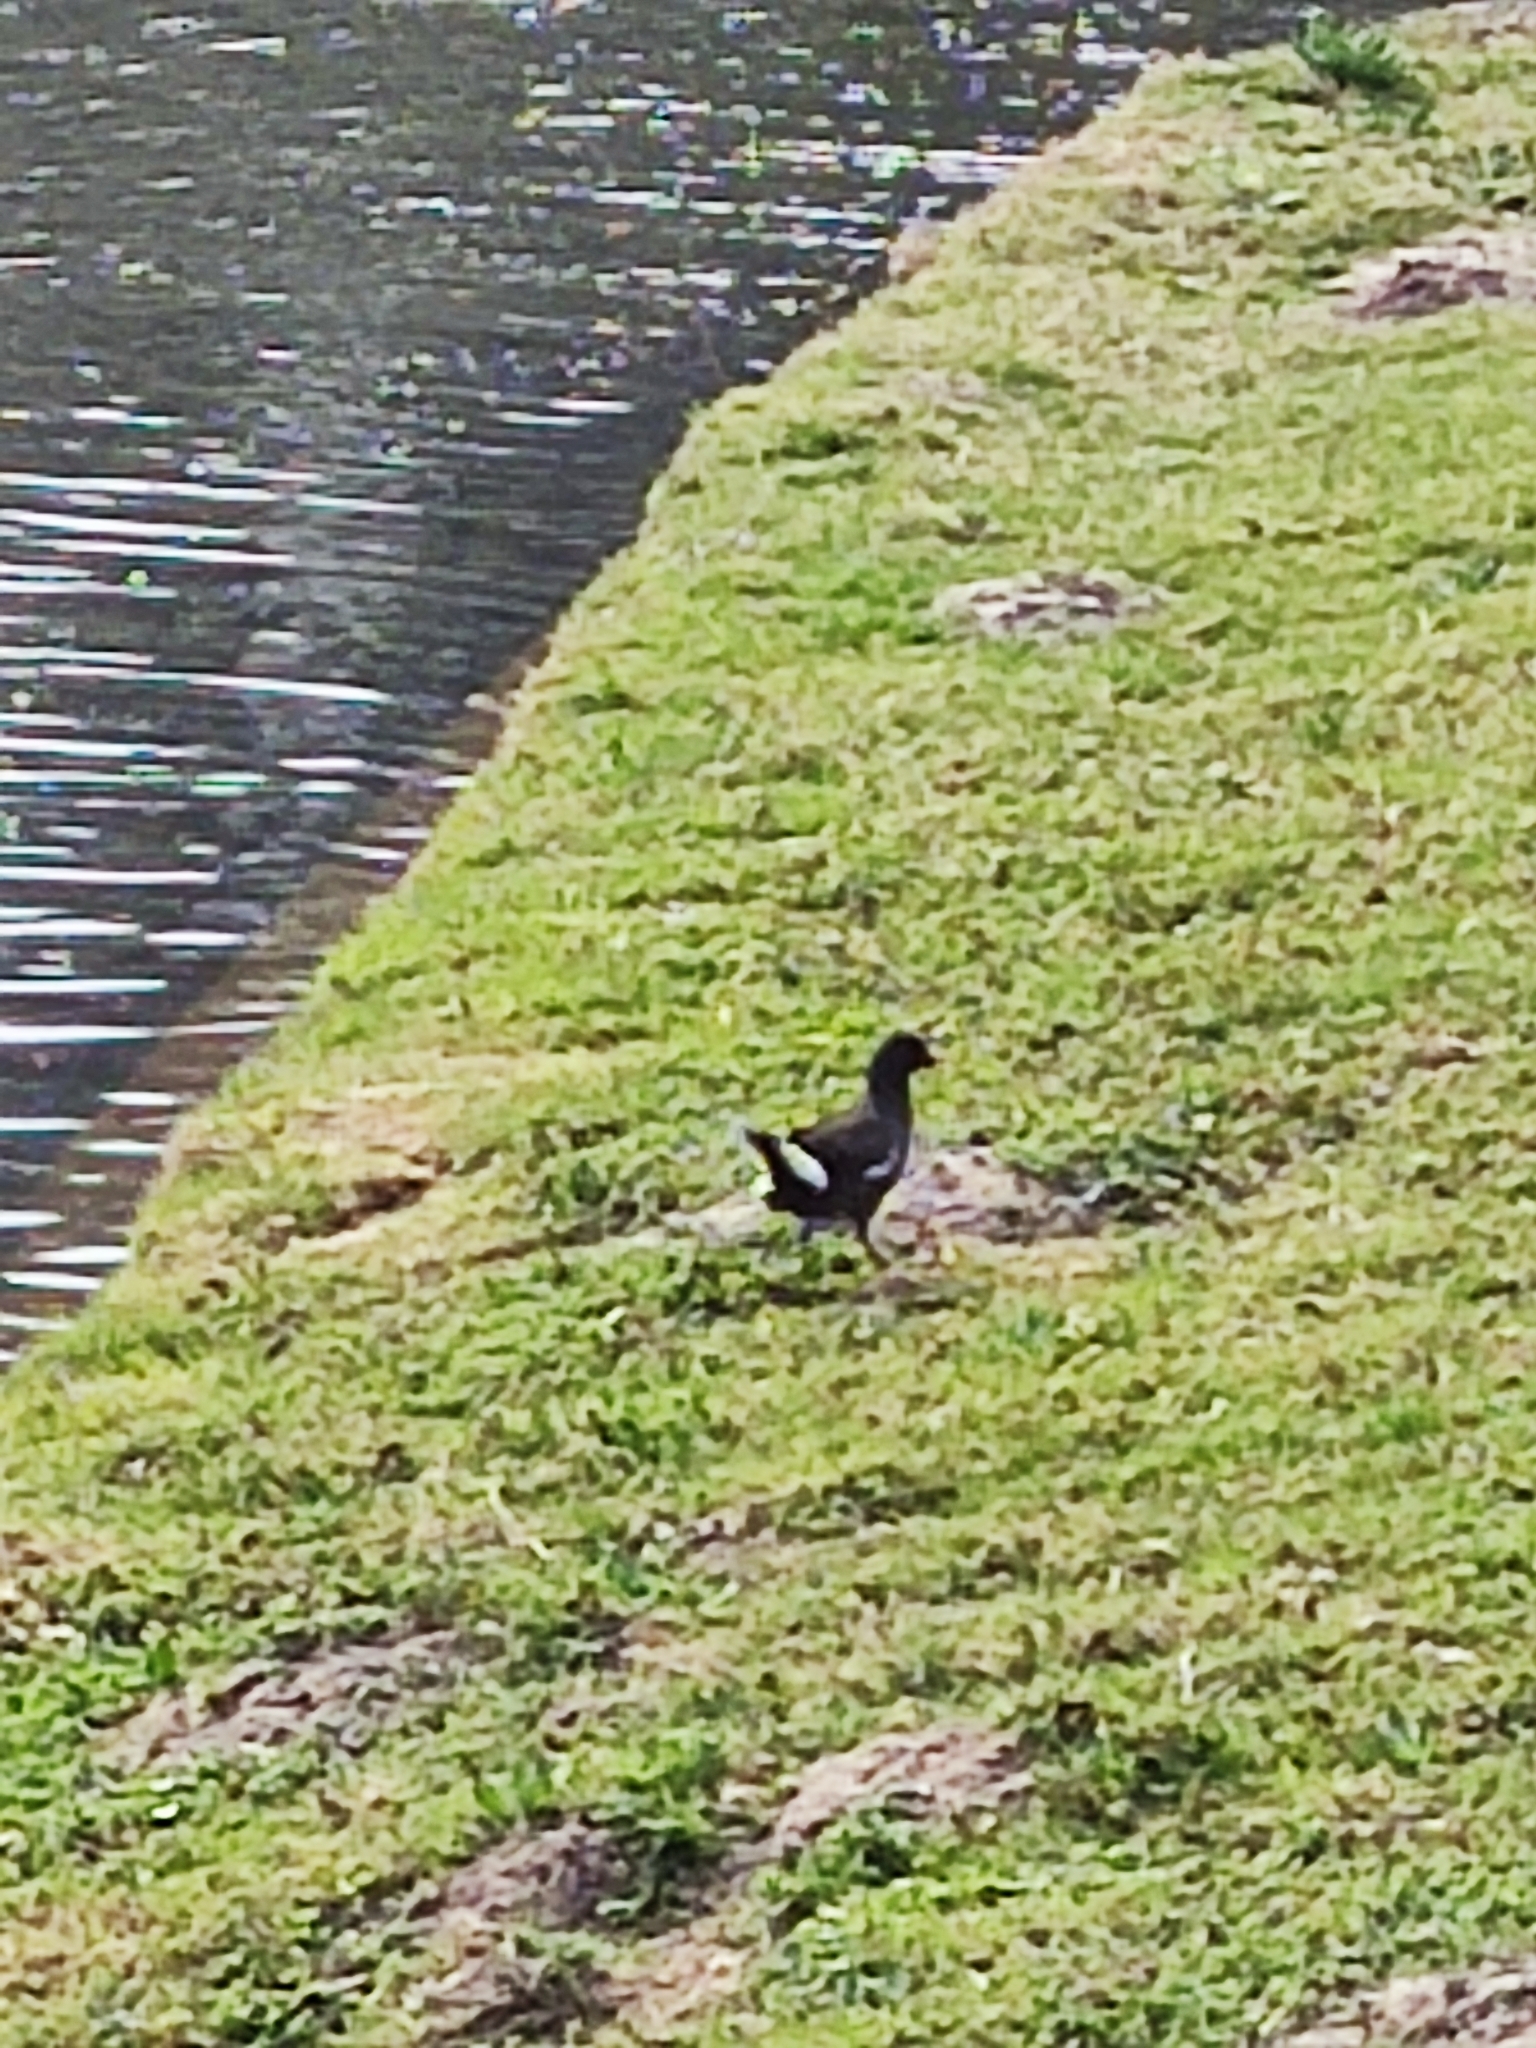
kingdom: Animalia
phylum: Chordata
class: Aves
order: Gruiformes
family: Rallidae
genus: Gallinula
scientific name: Gallinula chloropus
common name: Common moorhen
